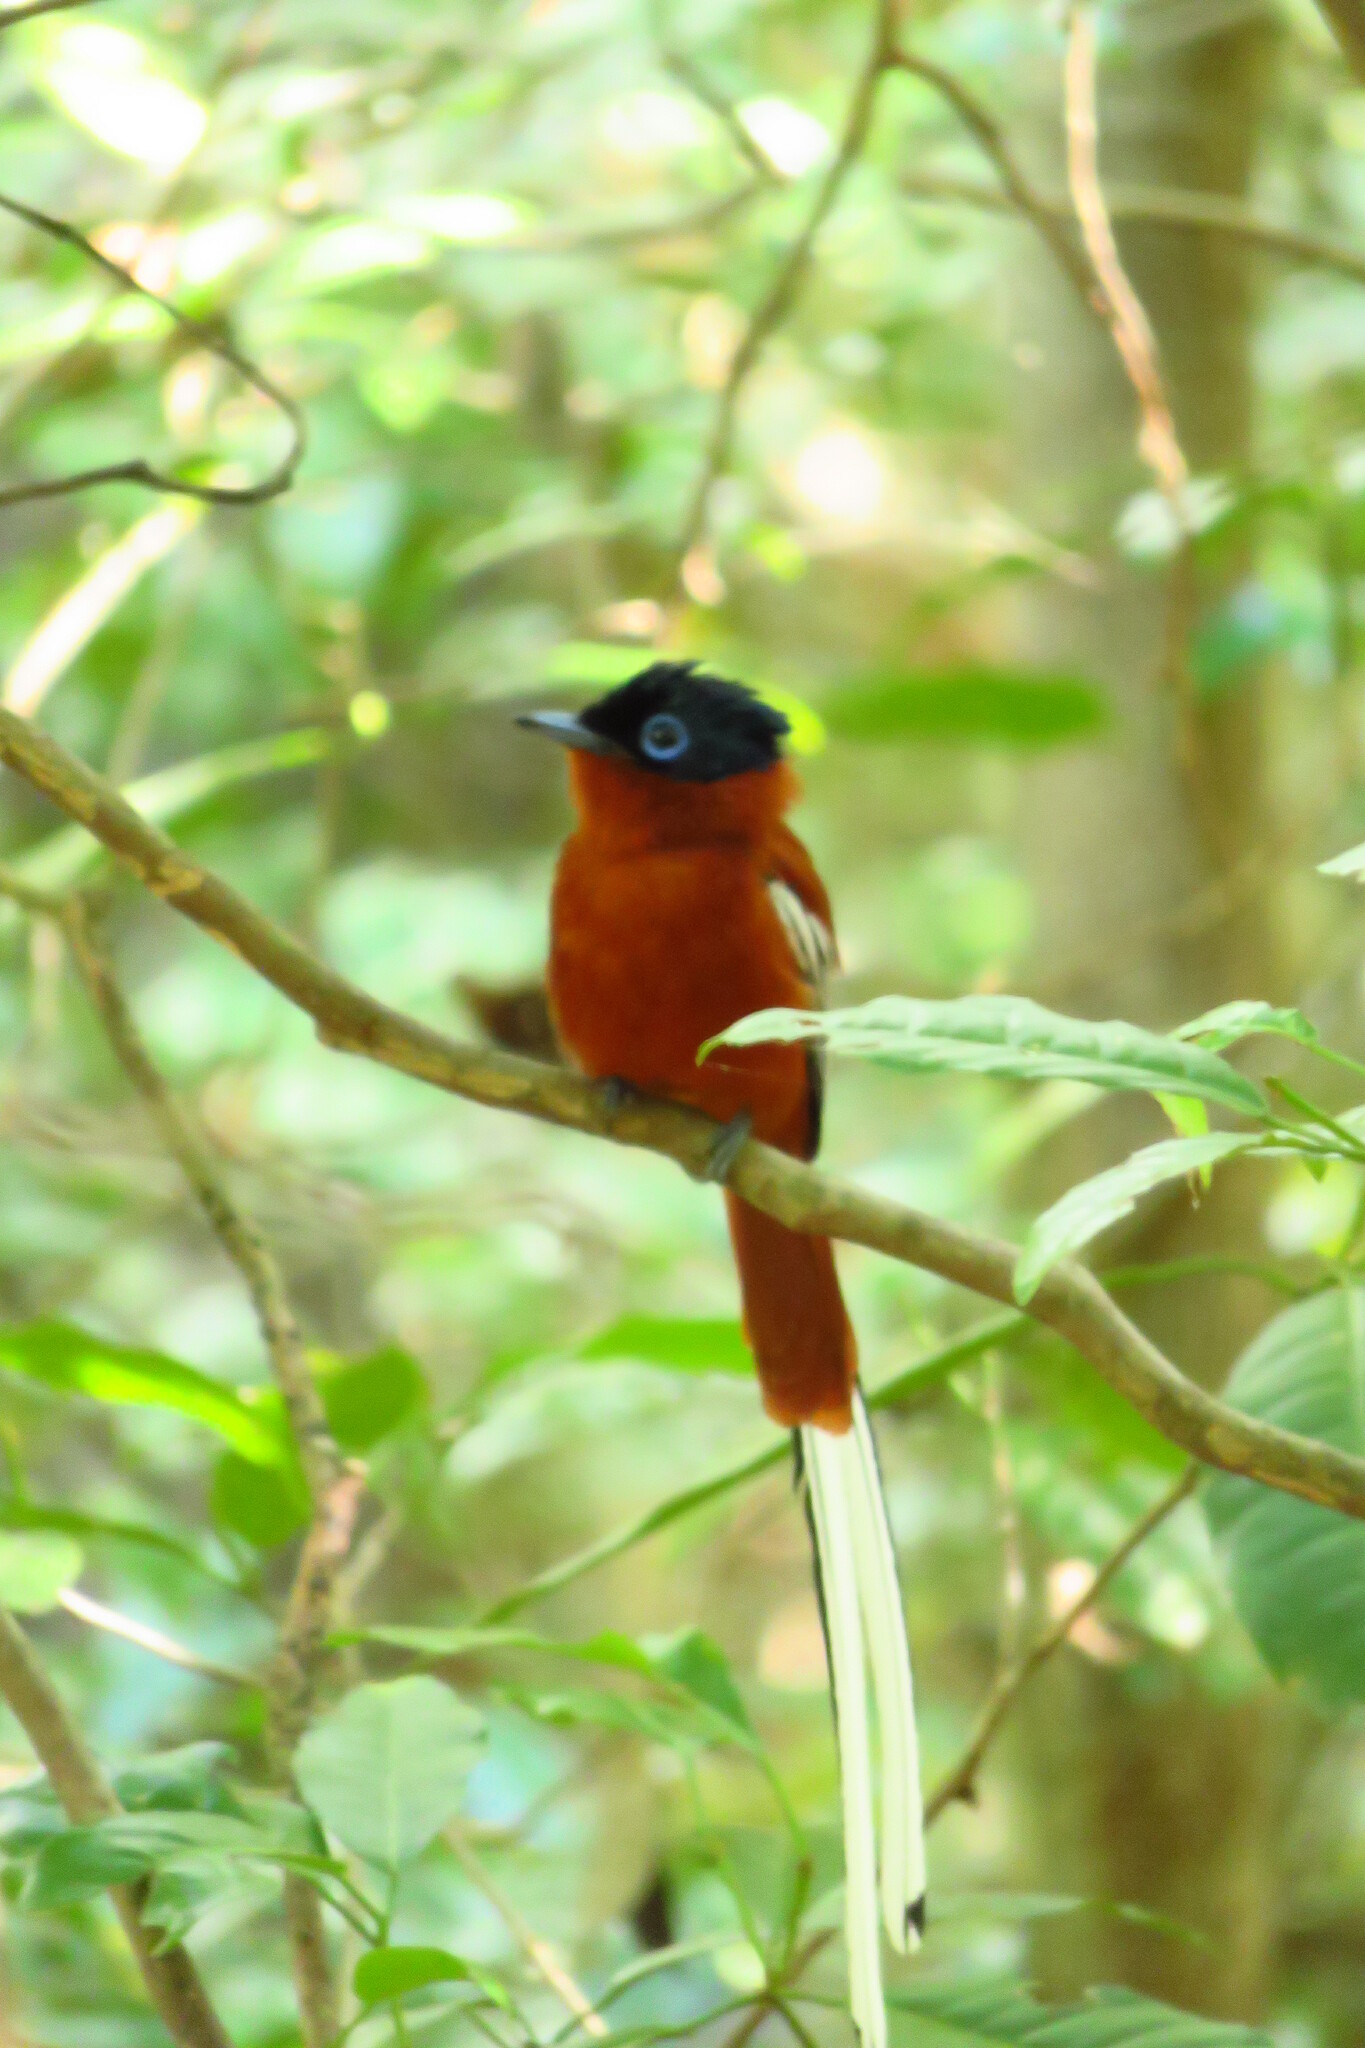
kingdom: Animalia
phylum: Chordata
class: Aves
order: Passeriformes
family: Monarchidae
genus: Terpsiphone
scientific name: Terpsiphone mutata
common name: Malagasy paradise flycatcher
